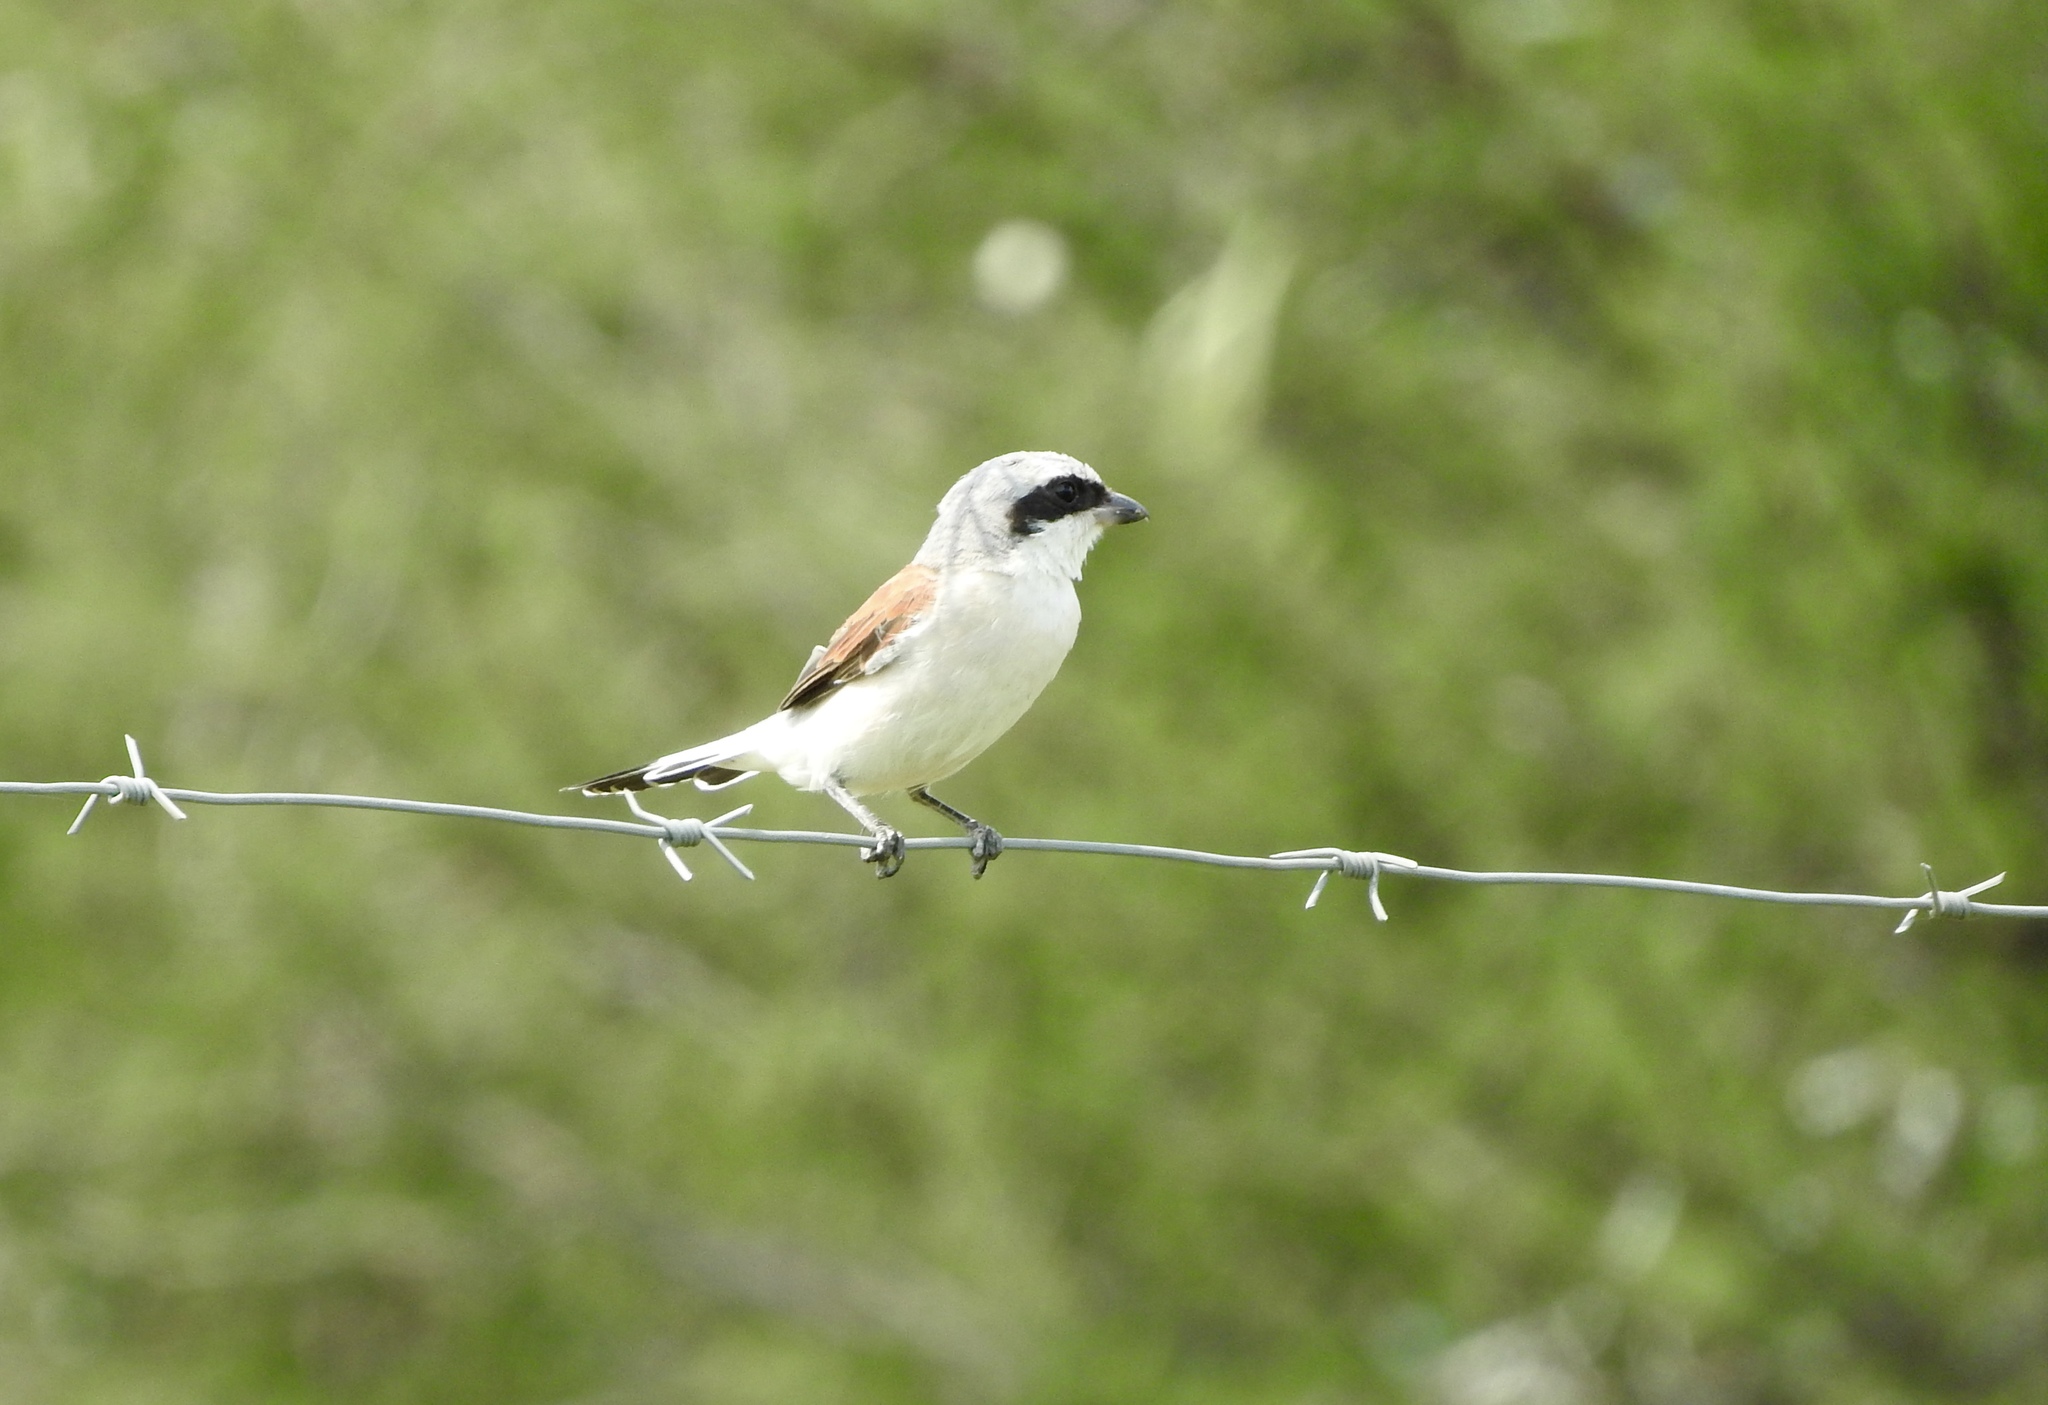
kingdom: Animalia
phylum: Chordata
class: Aves
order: Passeriformes
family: Laniidae
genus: Lanius
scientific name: Lanius collurio
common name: Red-backed shrike
